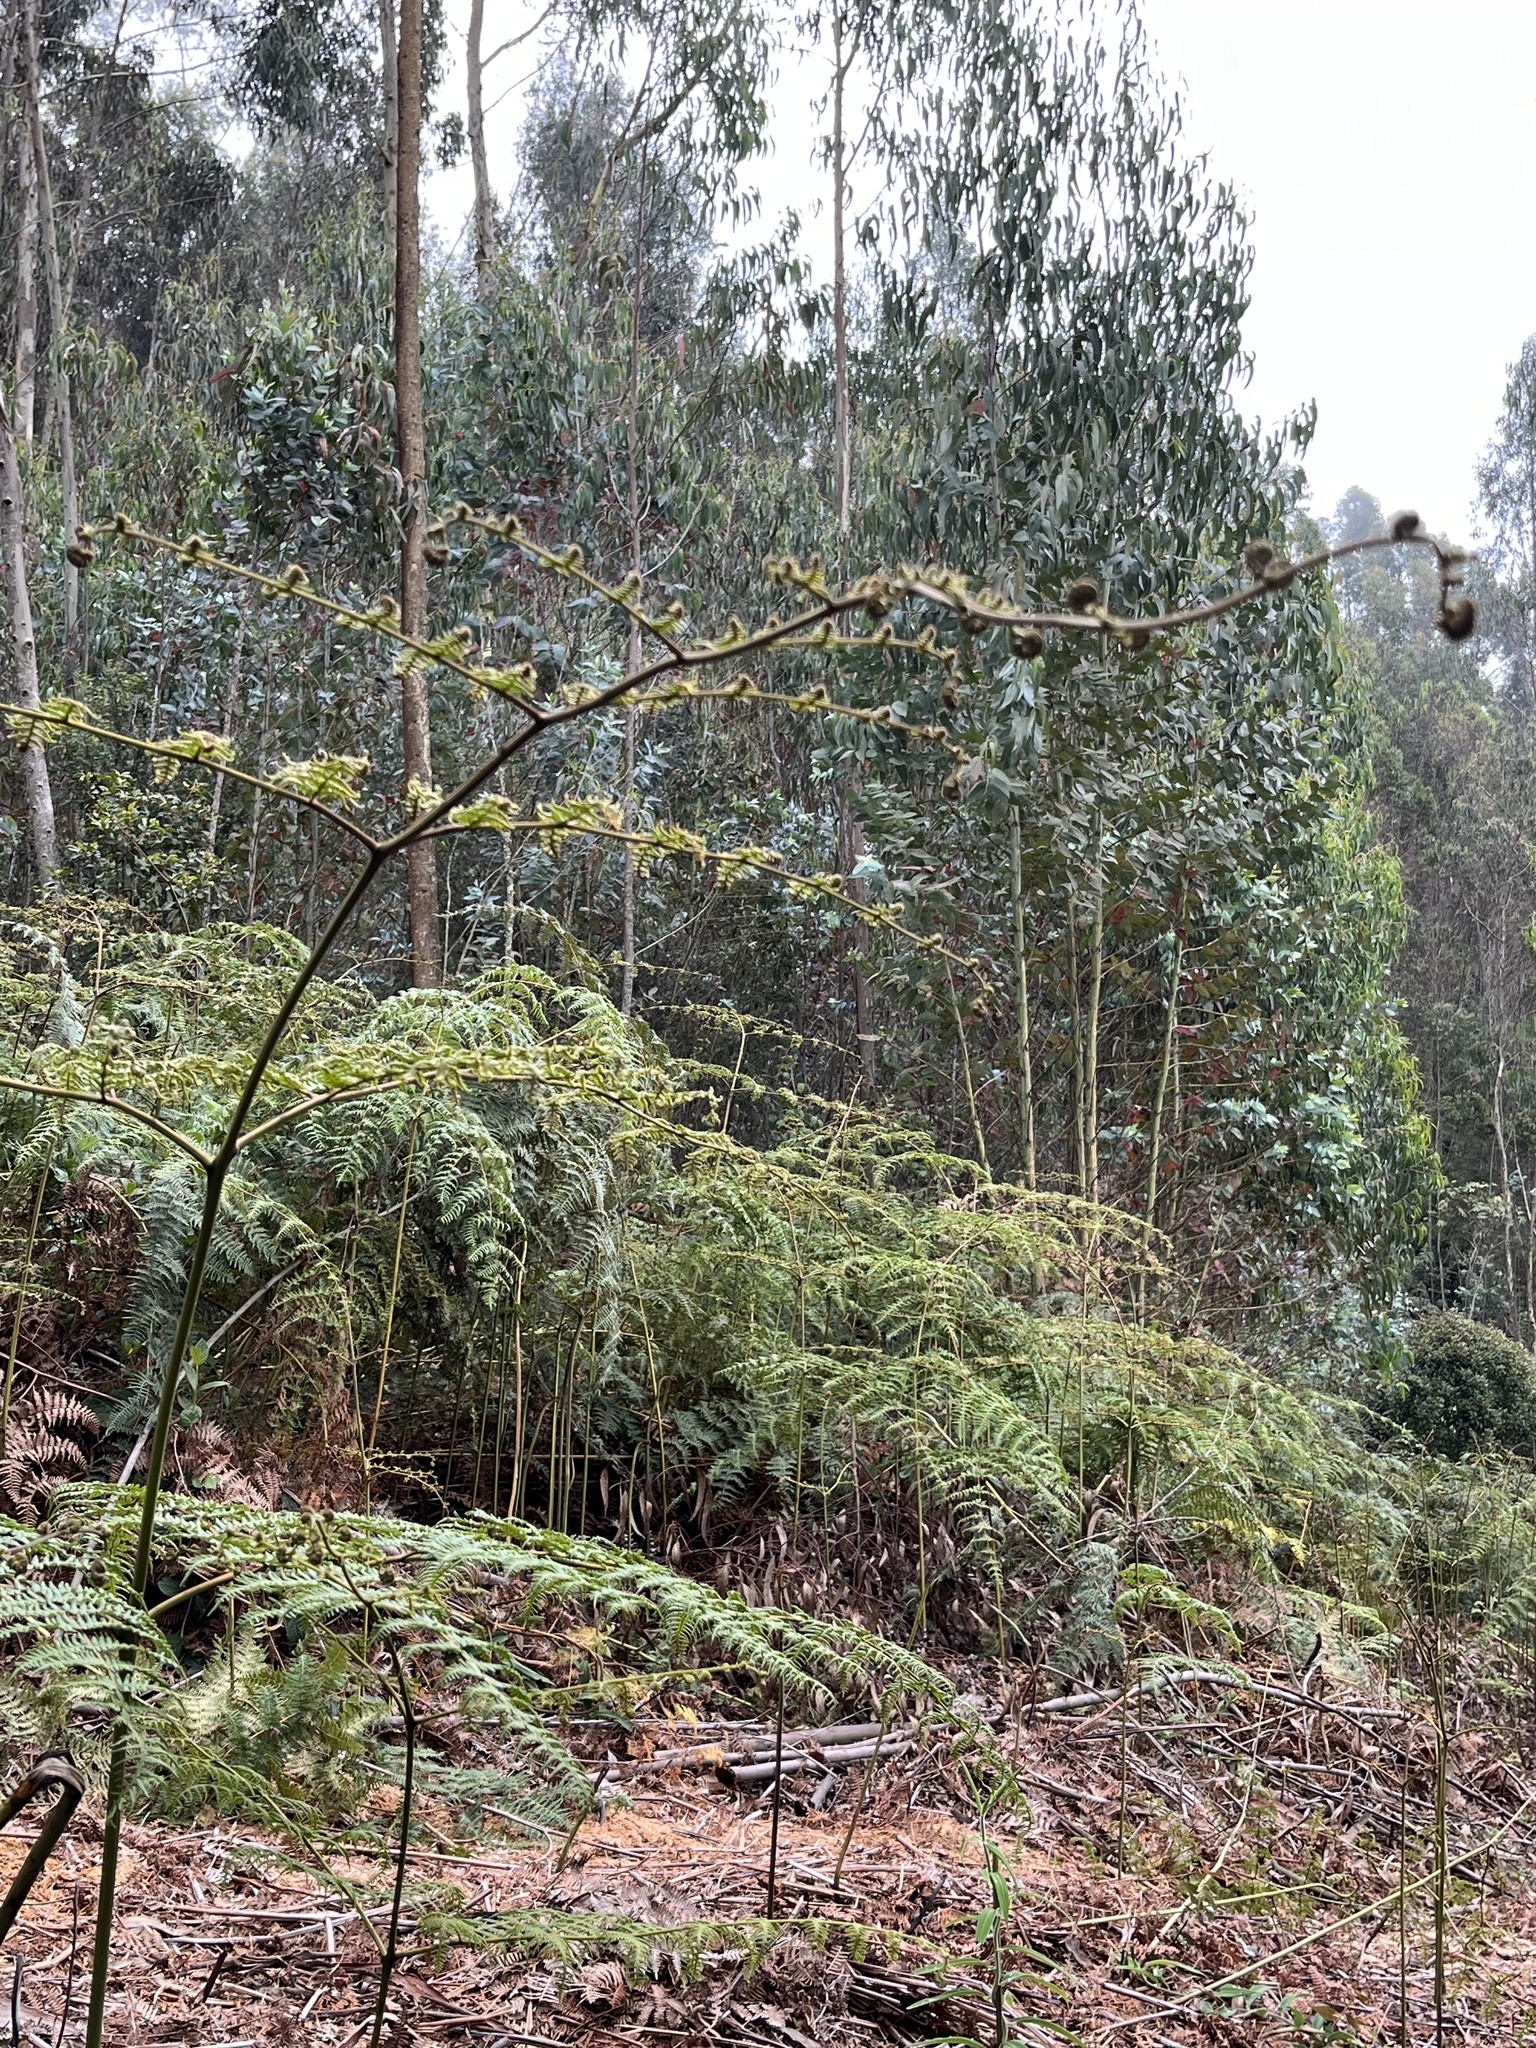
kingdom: Plantae
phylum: Tracheophyta
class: Polypodiopsida
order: Polypodiales
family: Dennstaedtiaceae
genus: Pteridium
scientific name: Pteridium esculentum
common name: Bracken fern
